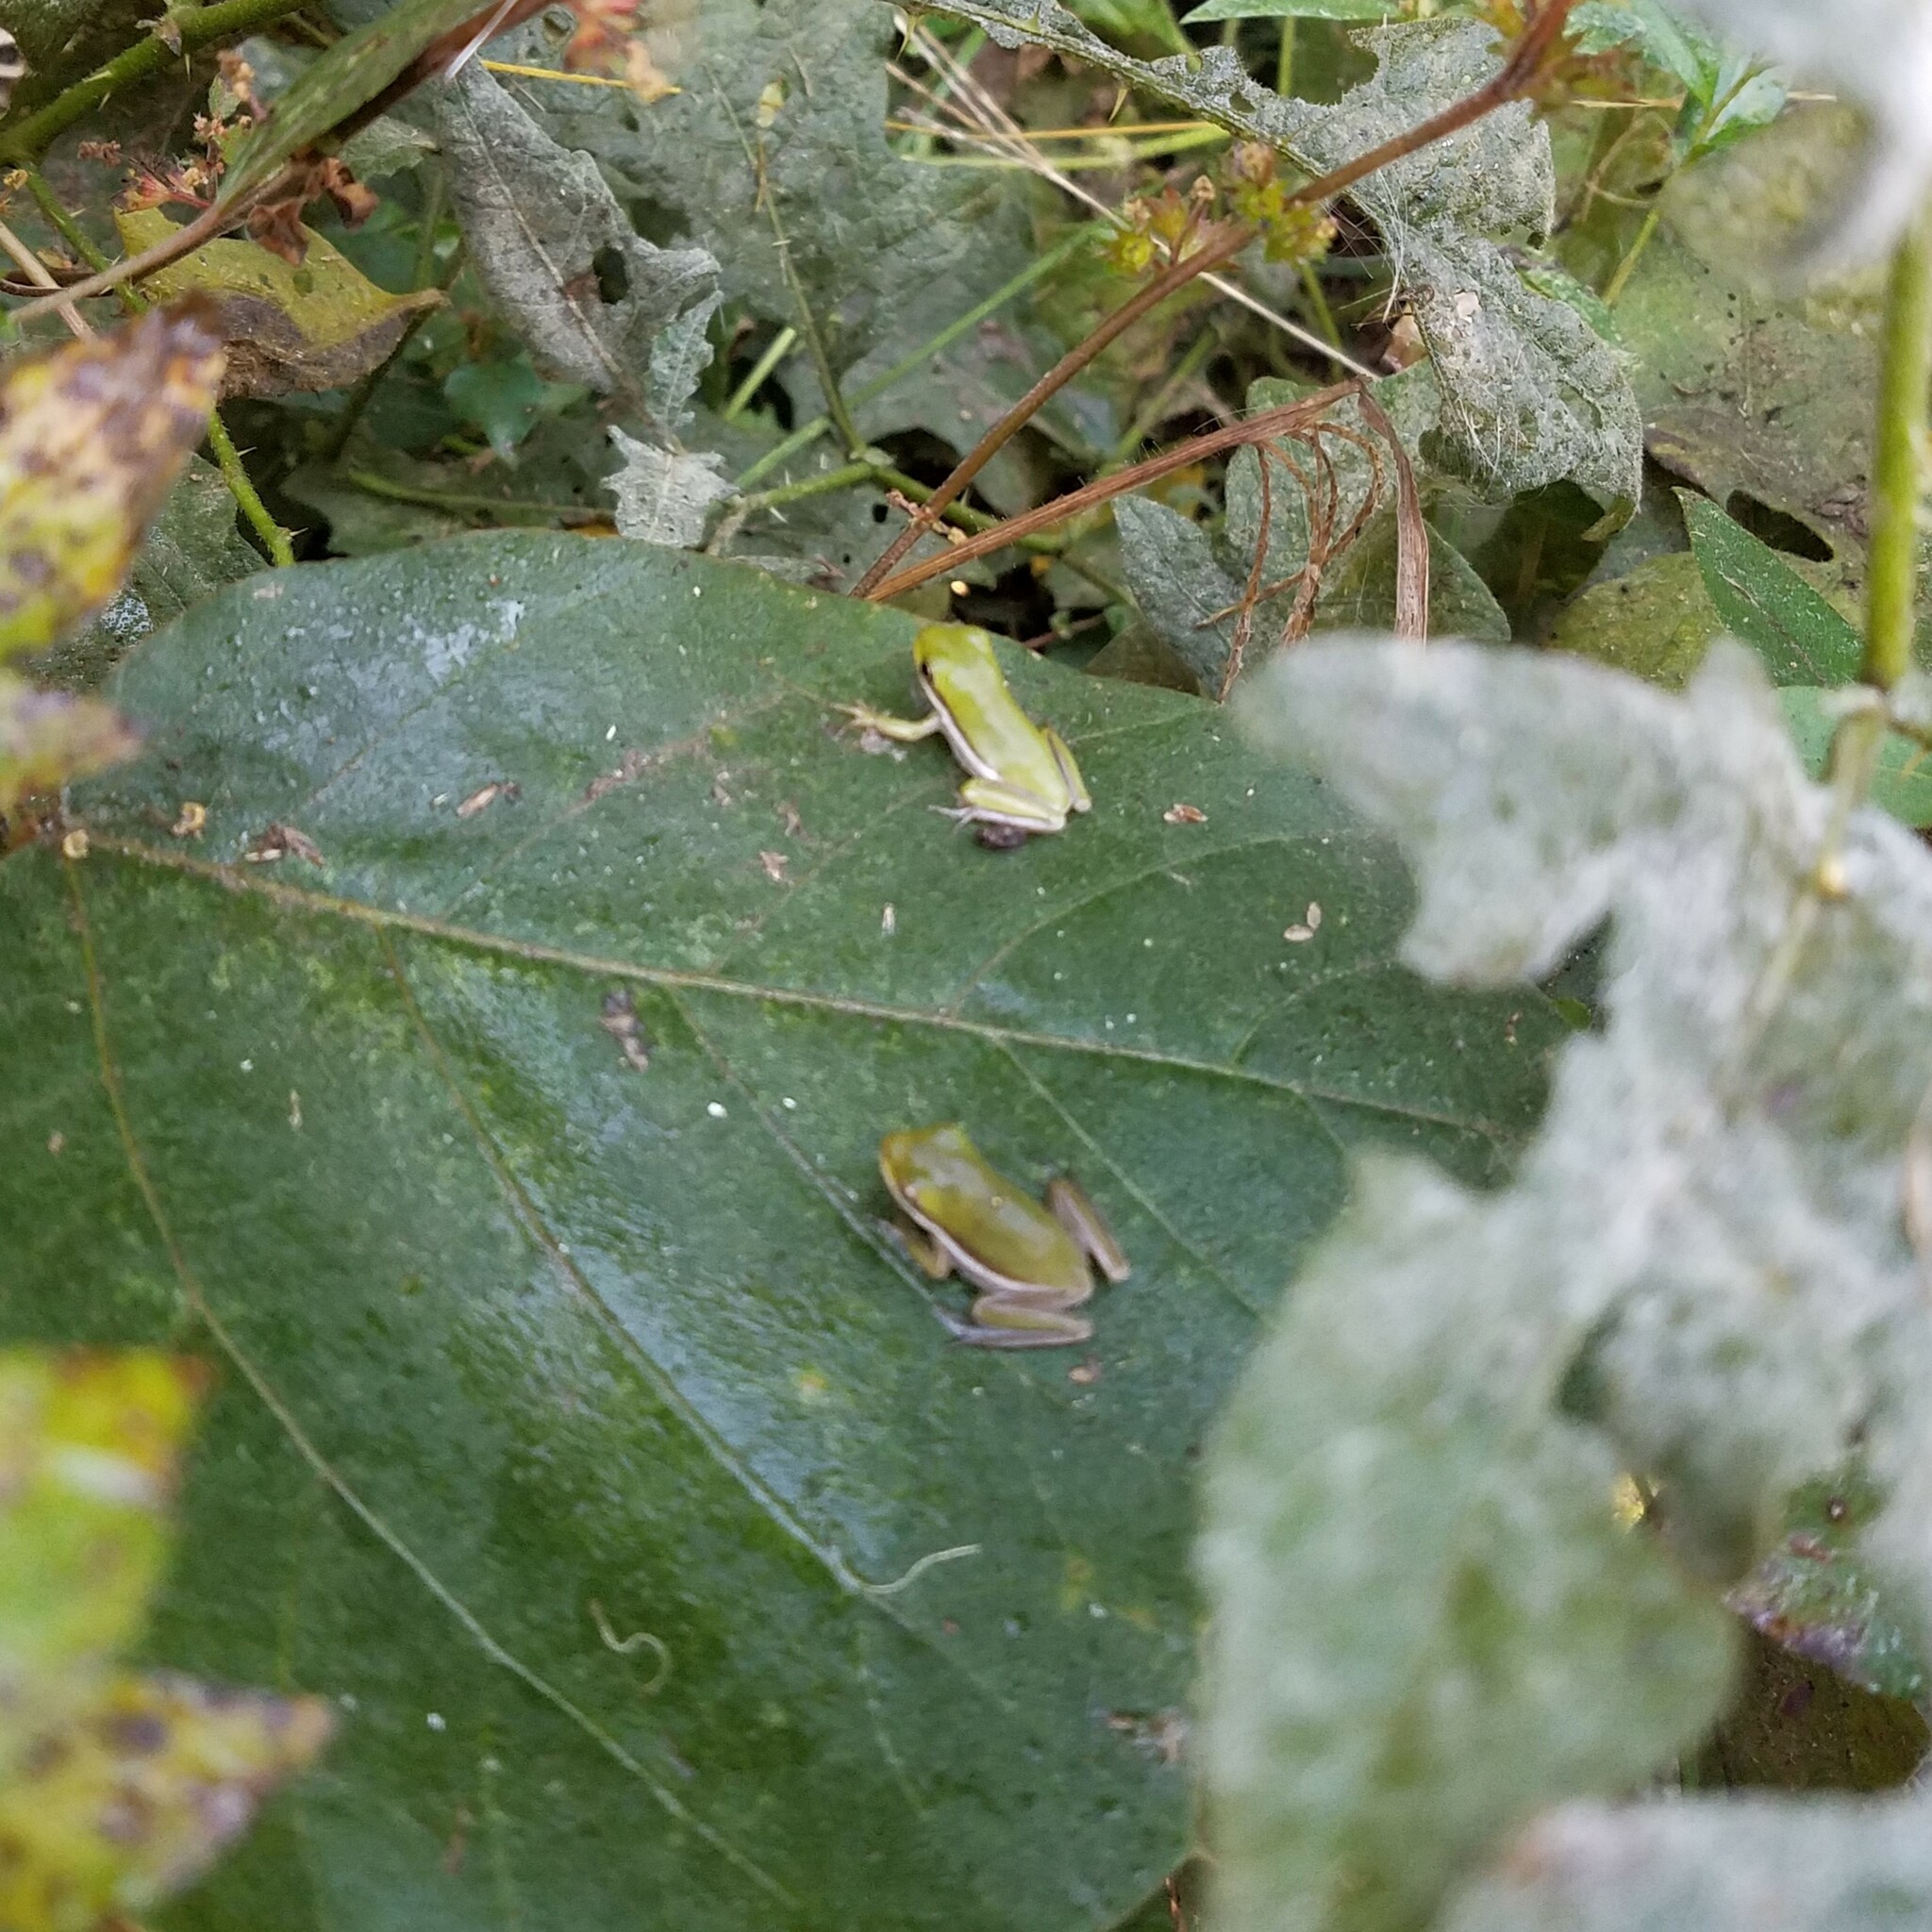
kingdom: Animalia
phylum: Chordata
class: Amphibia
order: Anura
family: Hylidae
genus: Dryophytes
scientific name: Dryophytes cinereus
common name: Green treefrog
